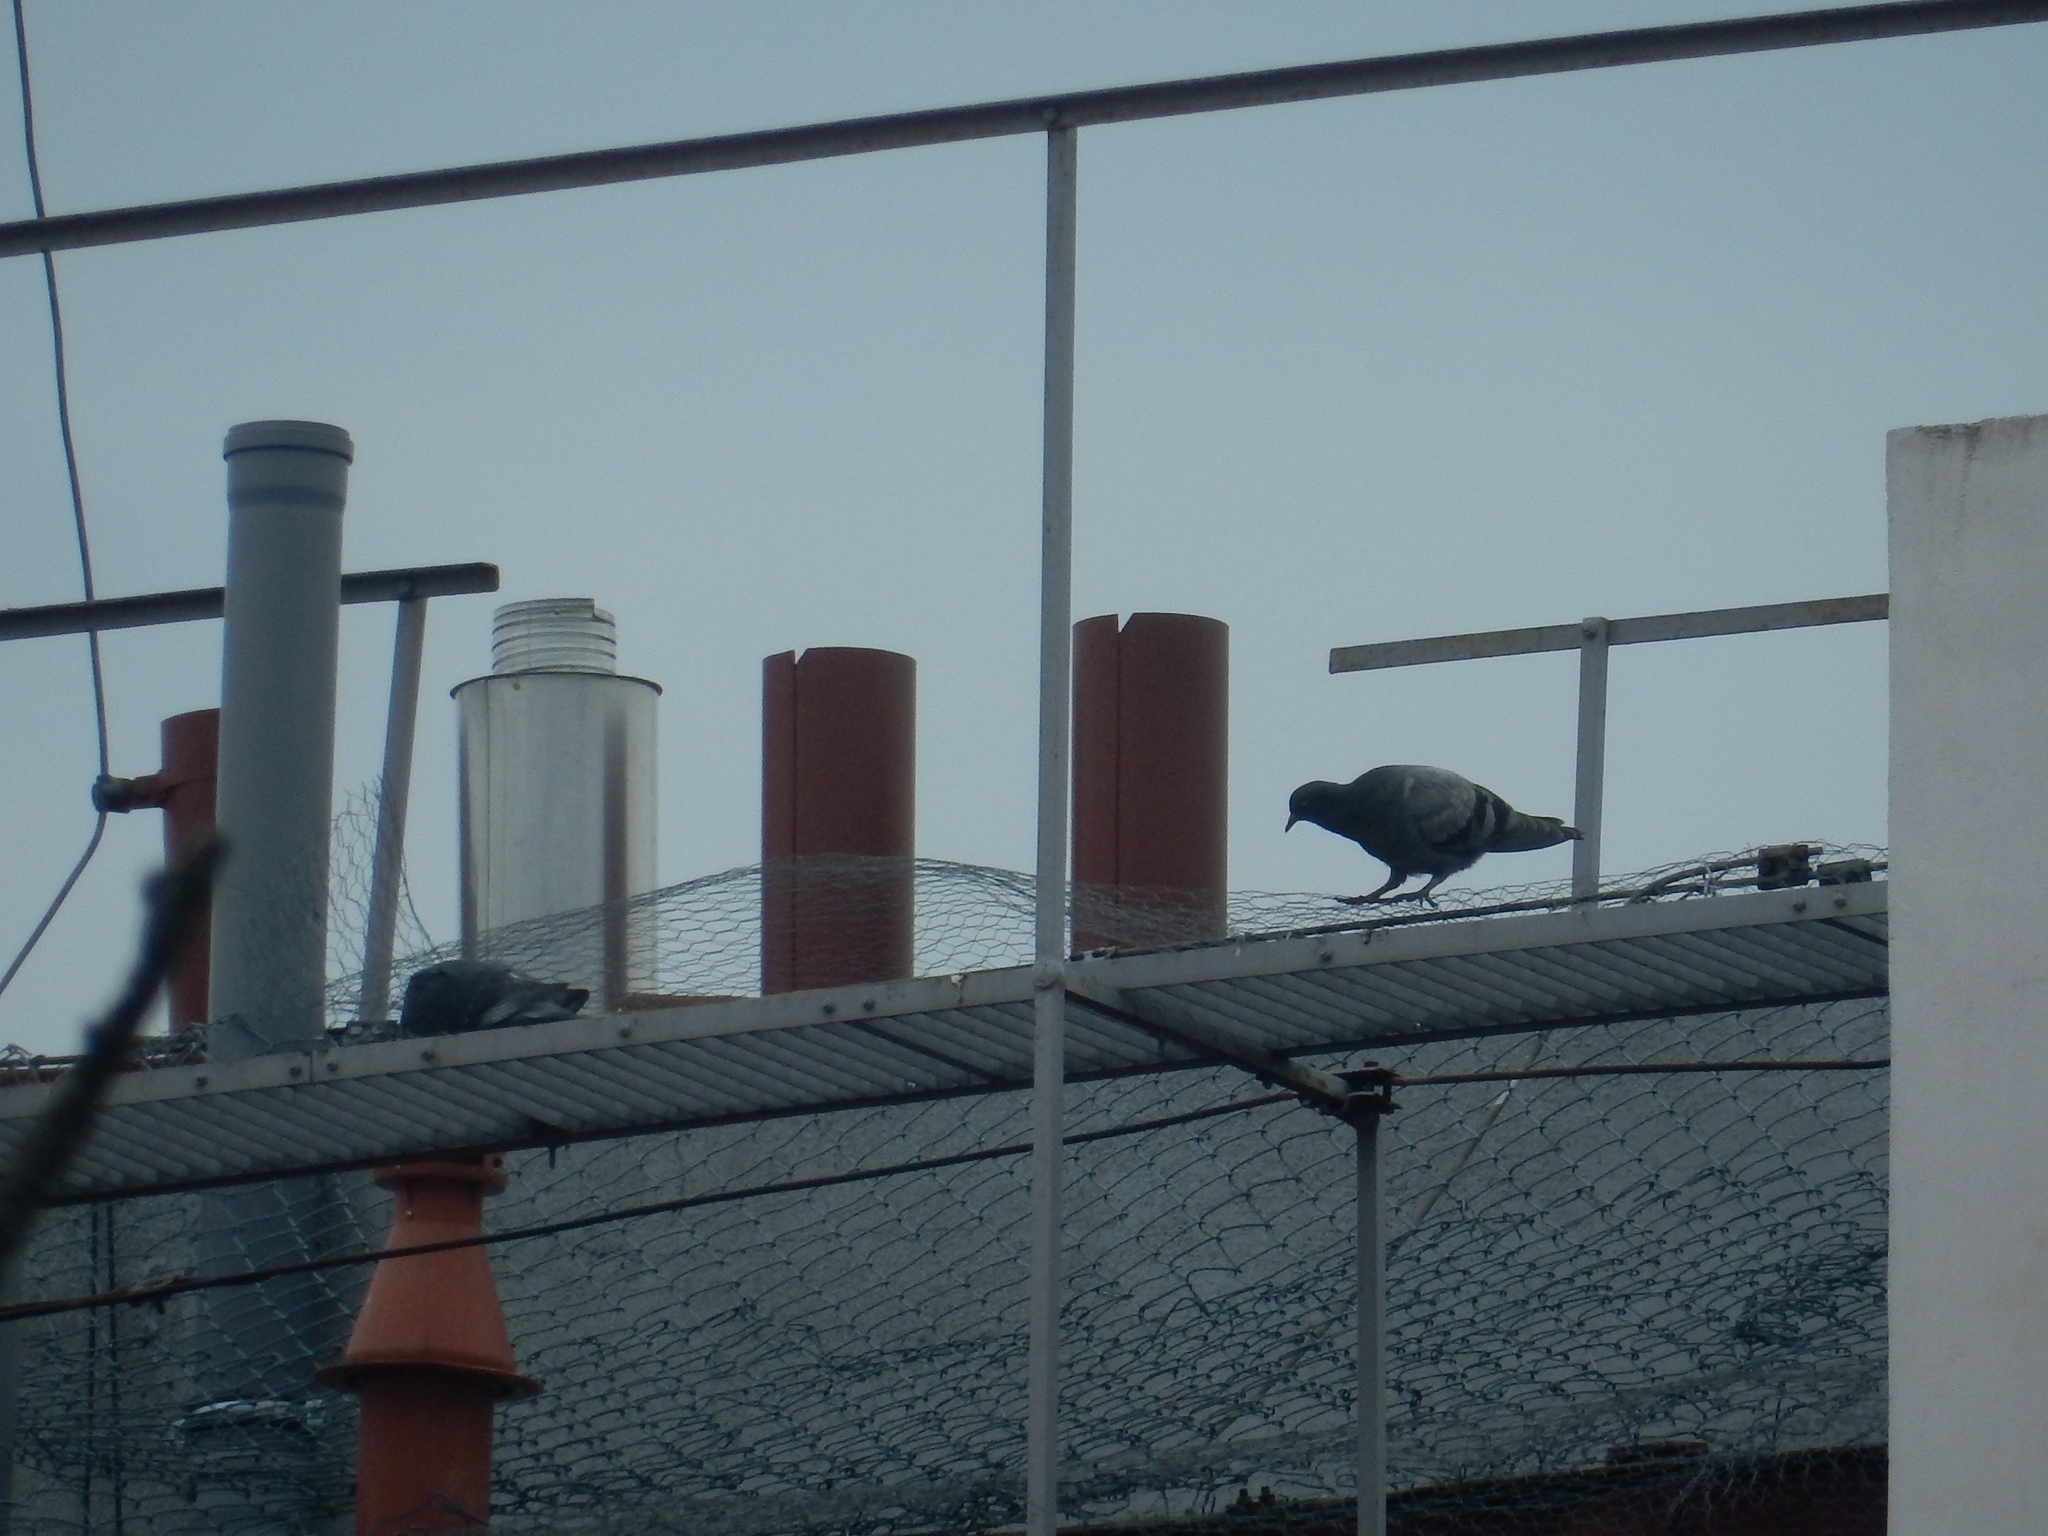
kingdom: Animalia
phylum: Chordata
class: Aves
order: Columbiformes
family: Columbidae
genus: Columba
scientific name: Columba livia
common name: Rock pigeon
